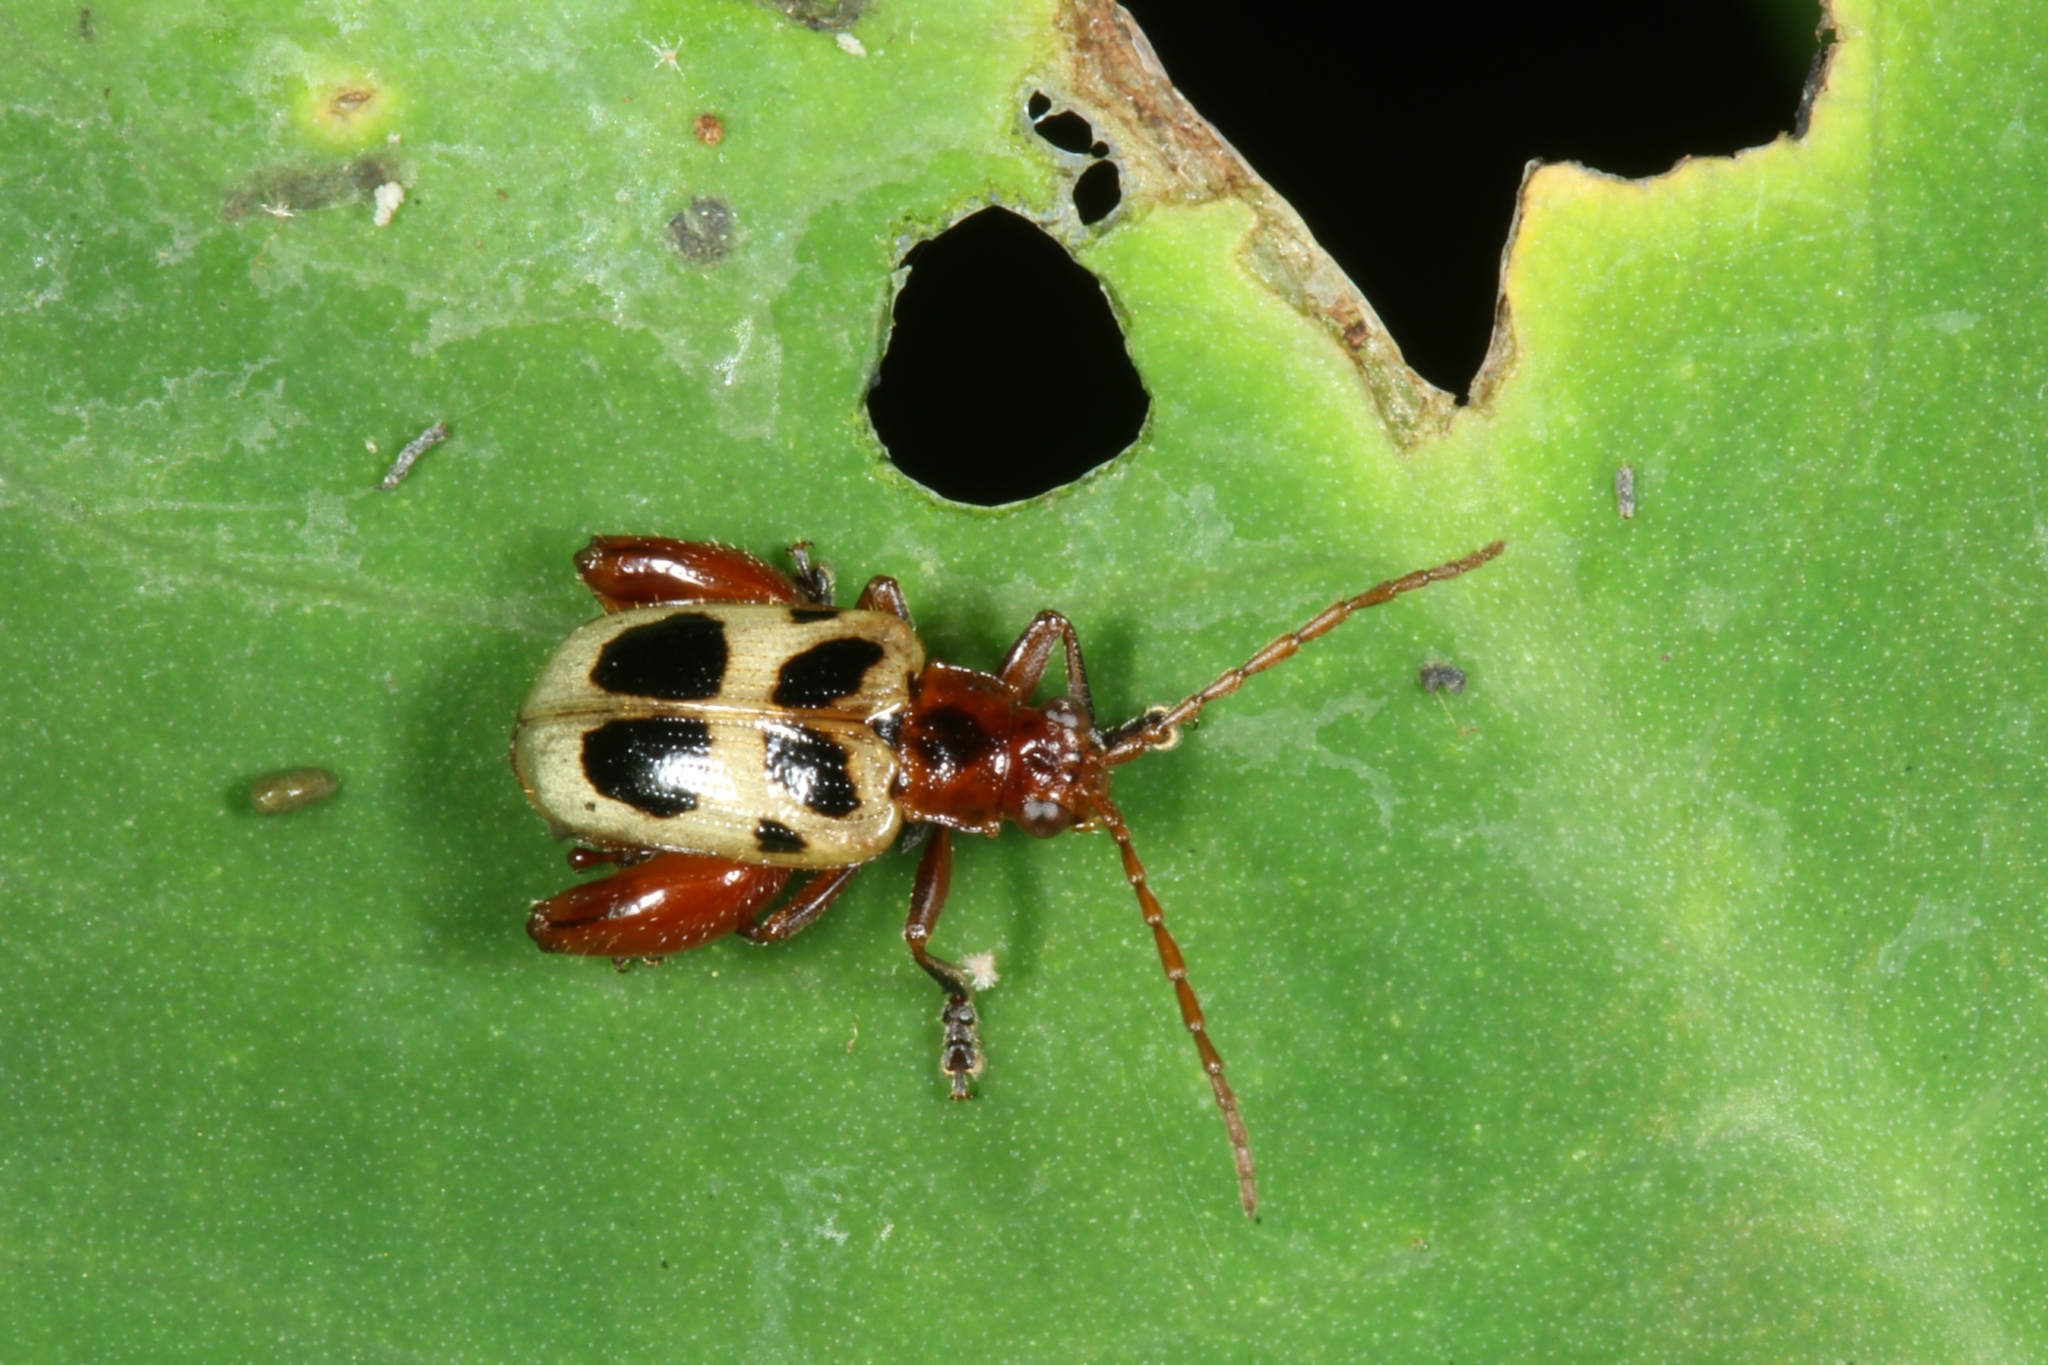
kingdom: Animalia
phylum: Arthropoda
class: Insecta
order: Coleoptera
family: Chrysomelidae
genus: Allochroma
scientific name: Allochroma
